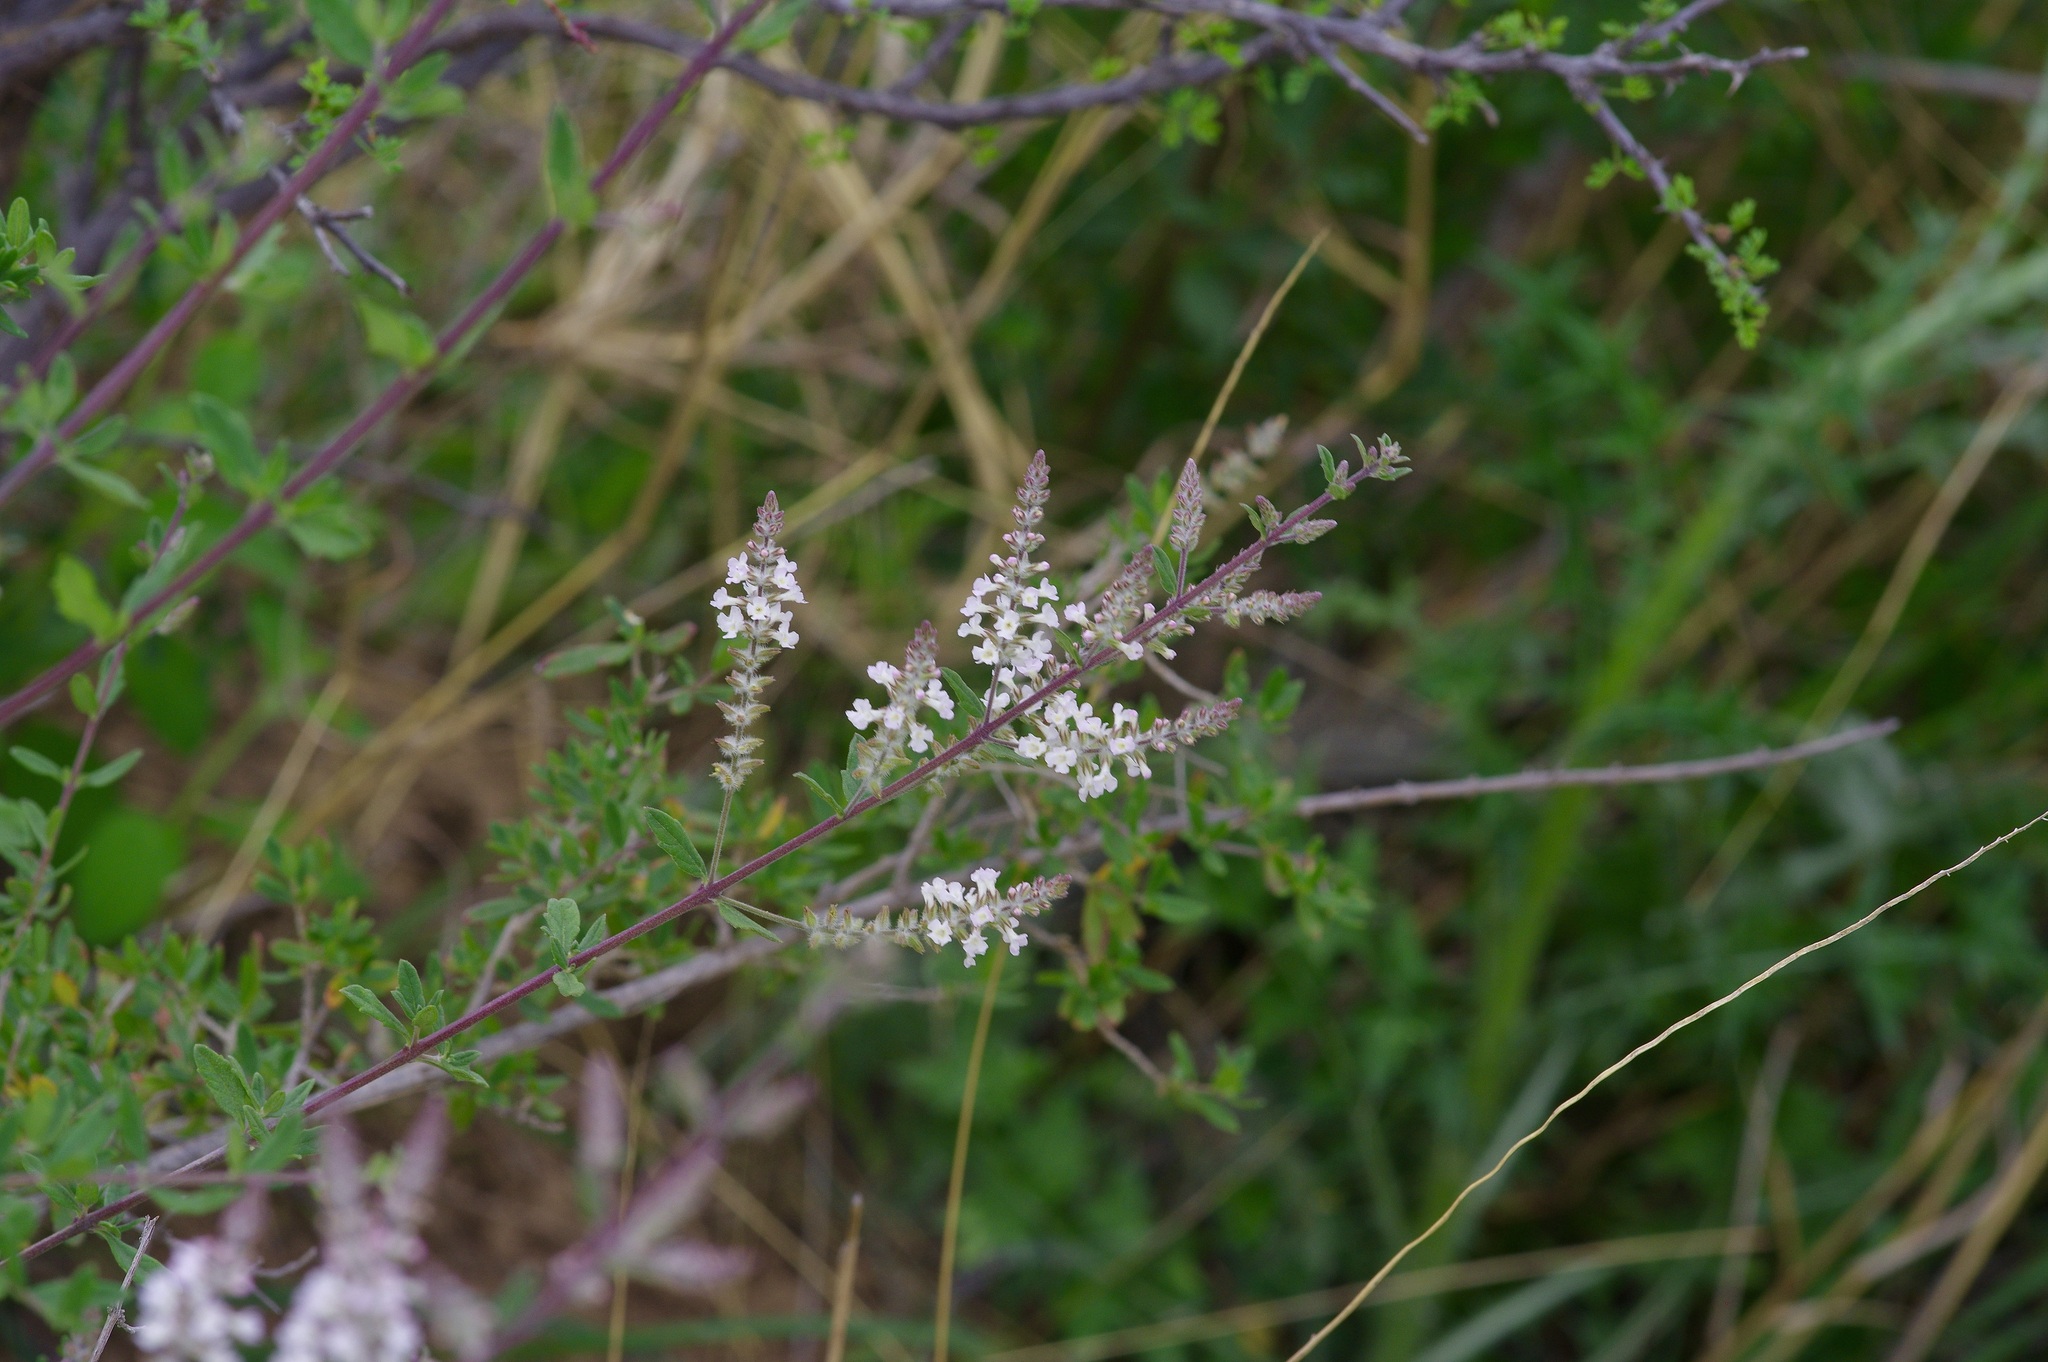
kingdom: Plantae
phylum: Tracheophyta
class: Magnoliopsida
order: Lamiales
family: Verbenaceae
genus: Aloysia
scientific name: Aloysia gratissima
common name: Common bee-brush
